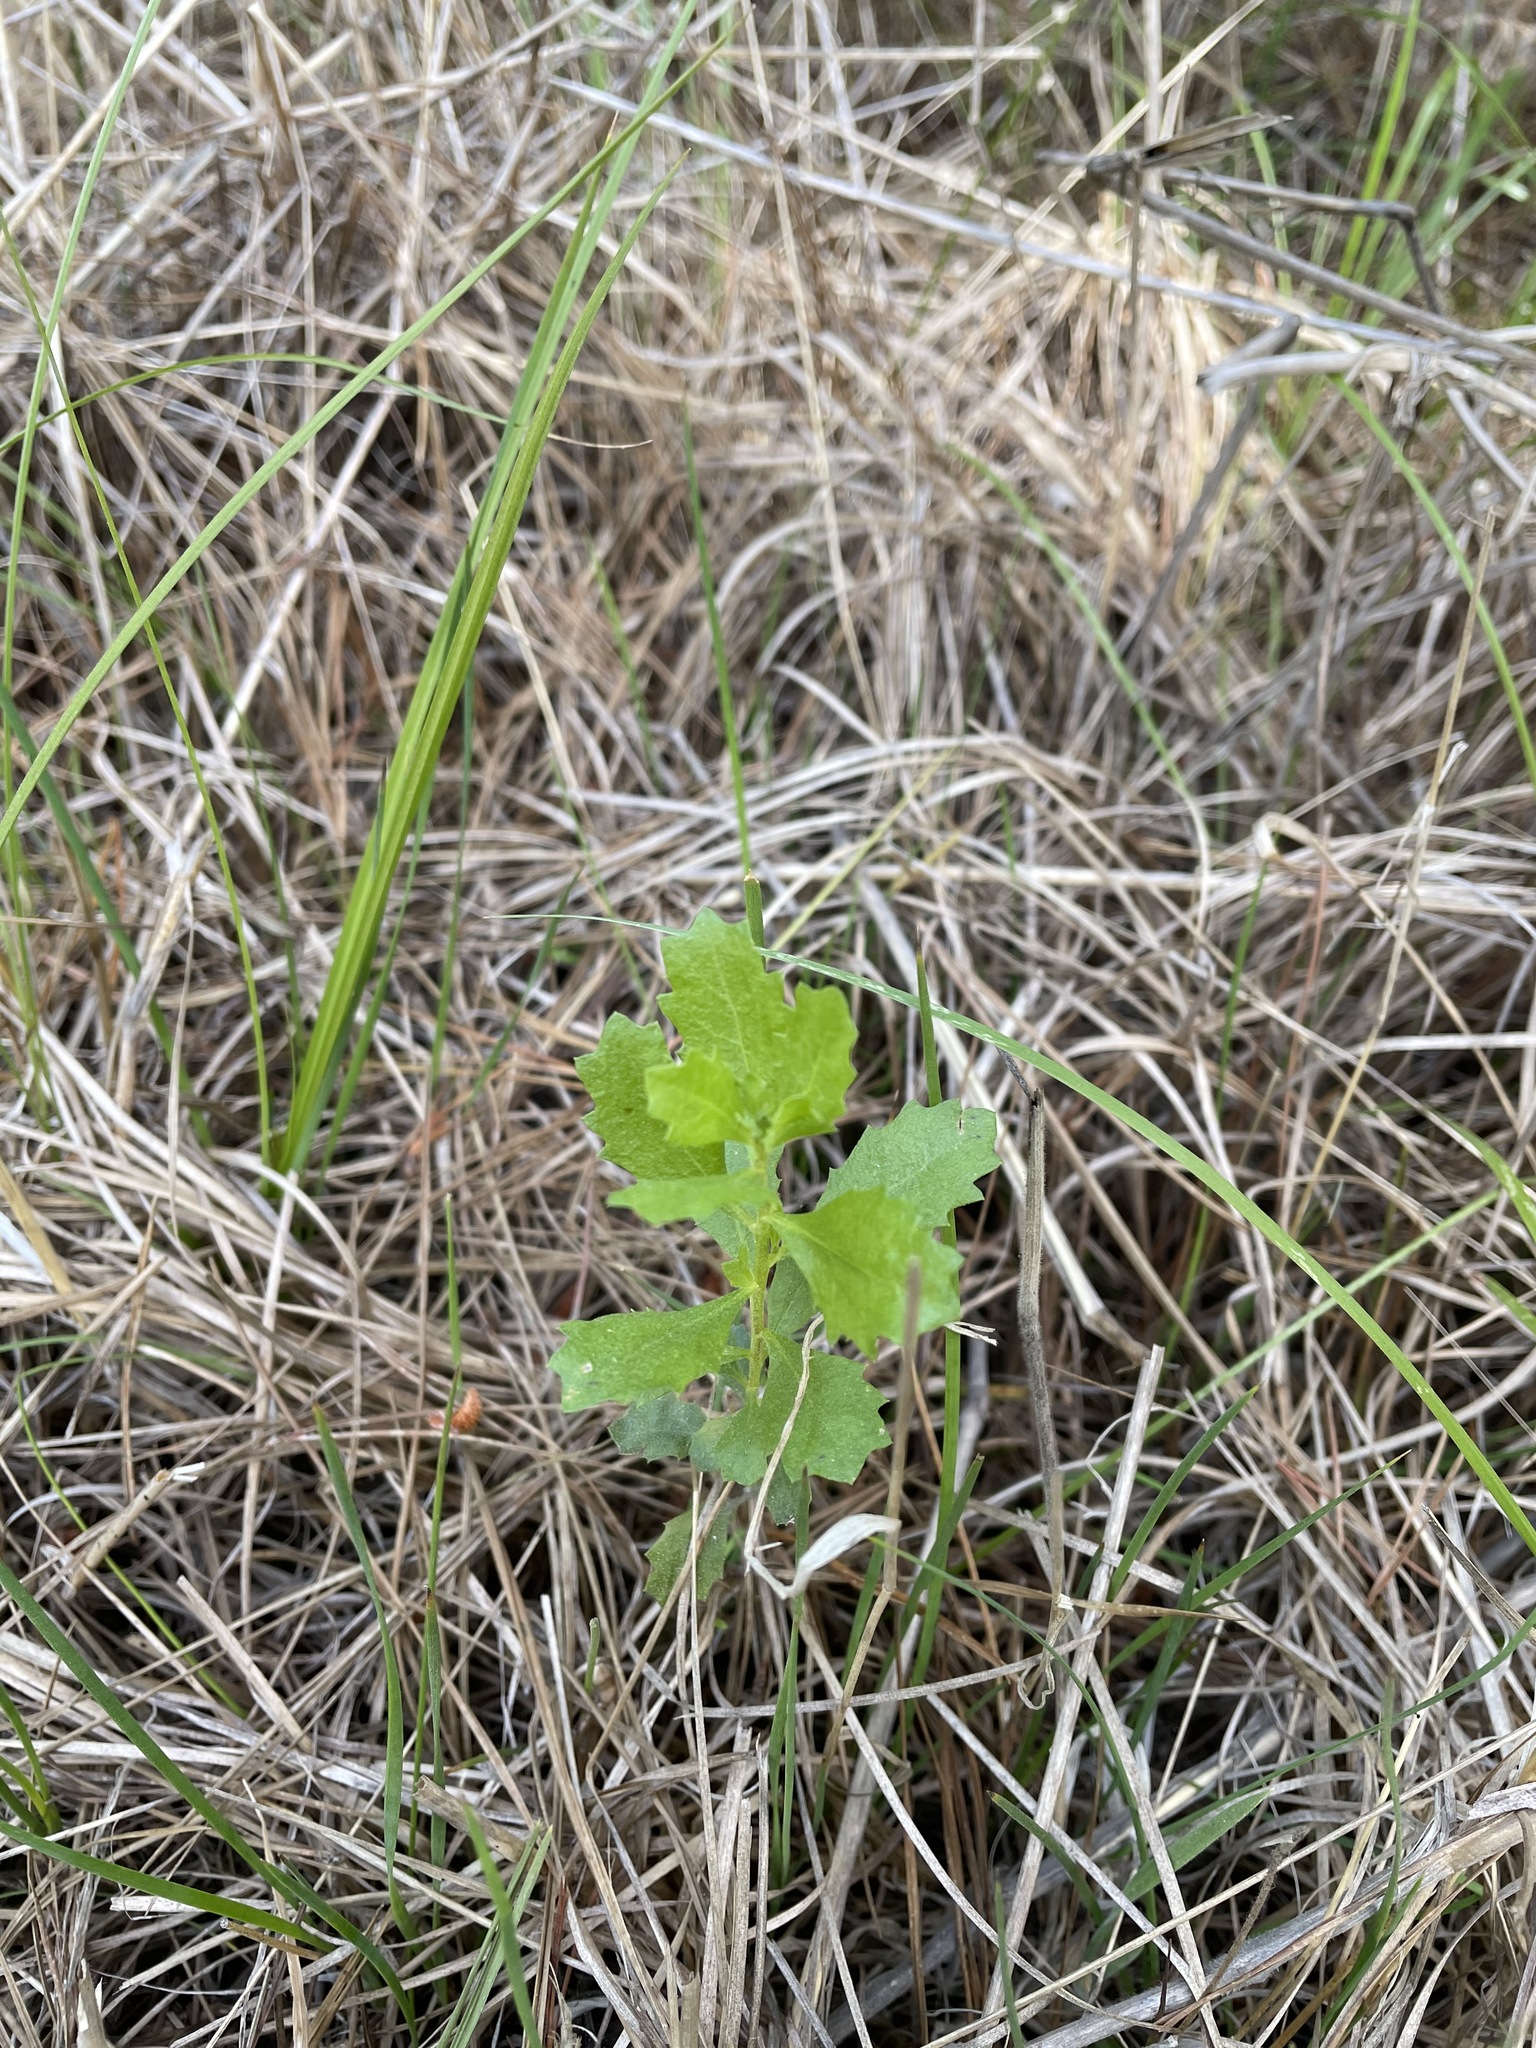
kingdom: Plantae
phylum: Tracheophyta
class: Magnoliopsida
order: Asterales
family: Asteraceae
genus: Baccharis
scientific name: Baccharis pilularis
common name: Coyotebrush
